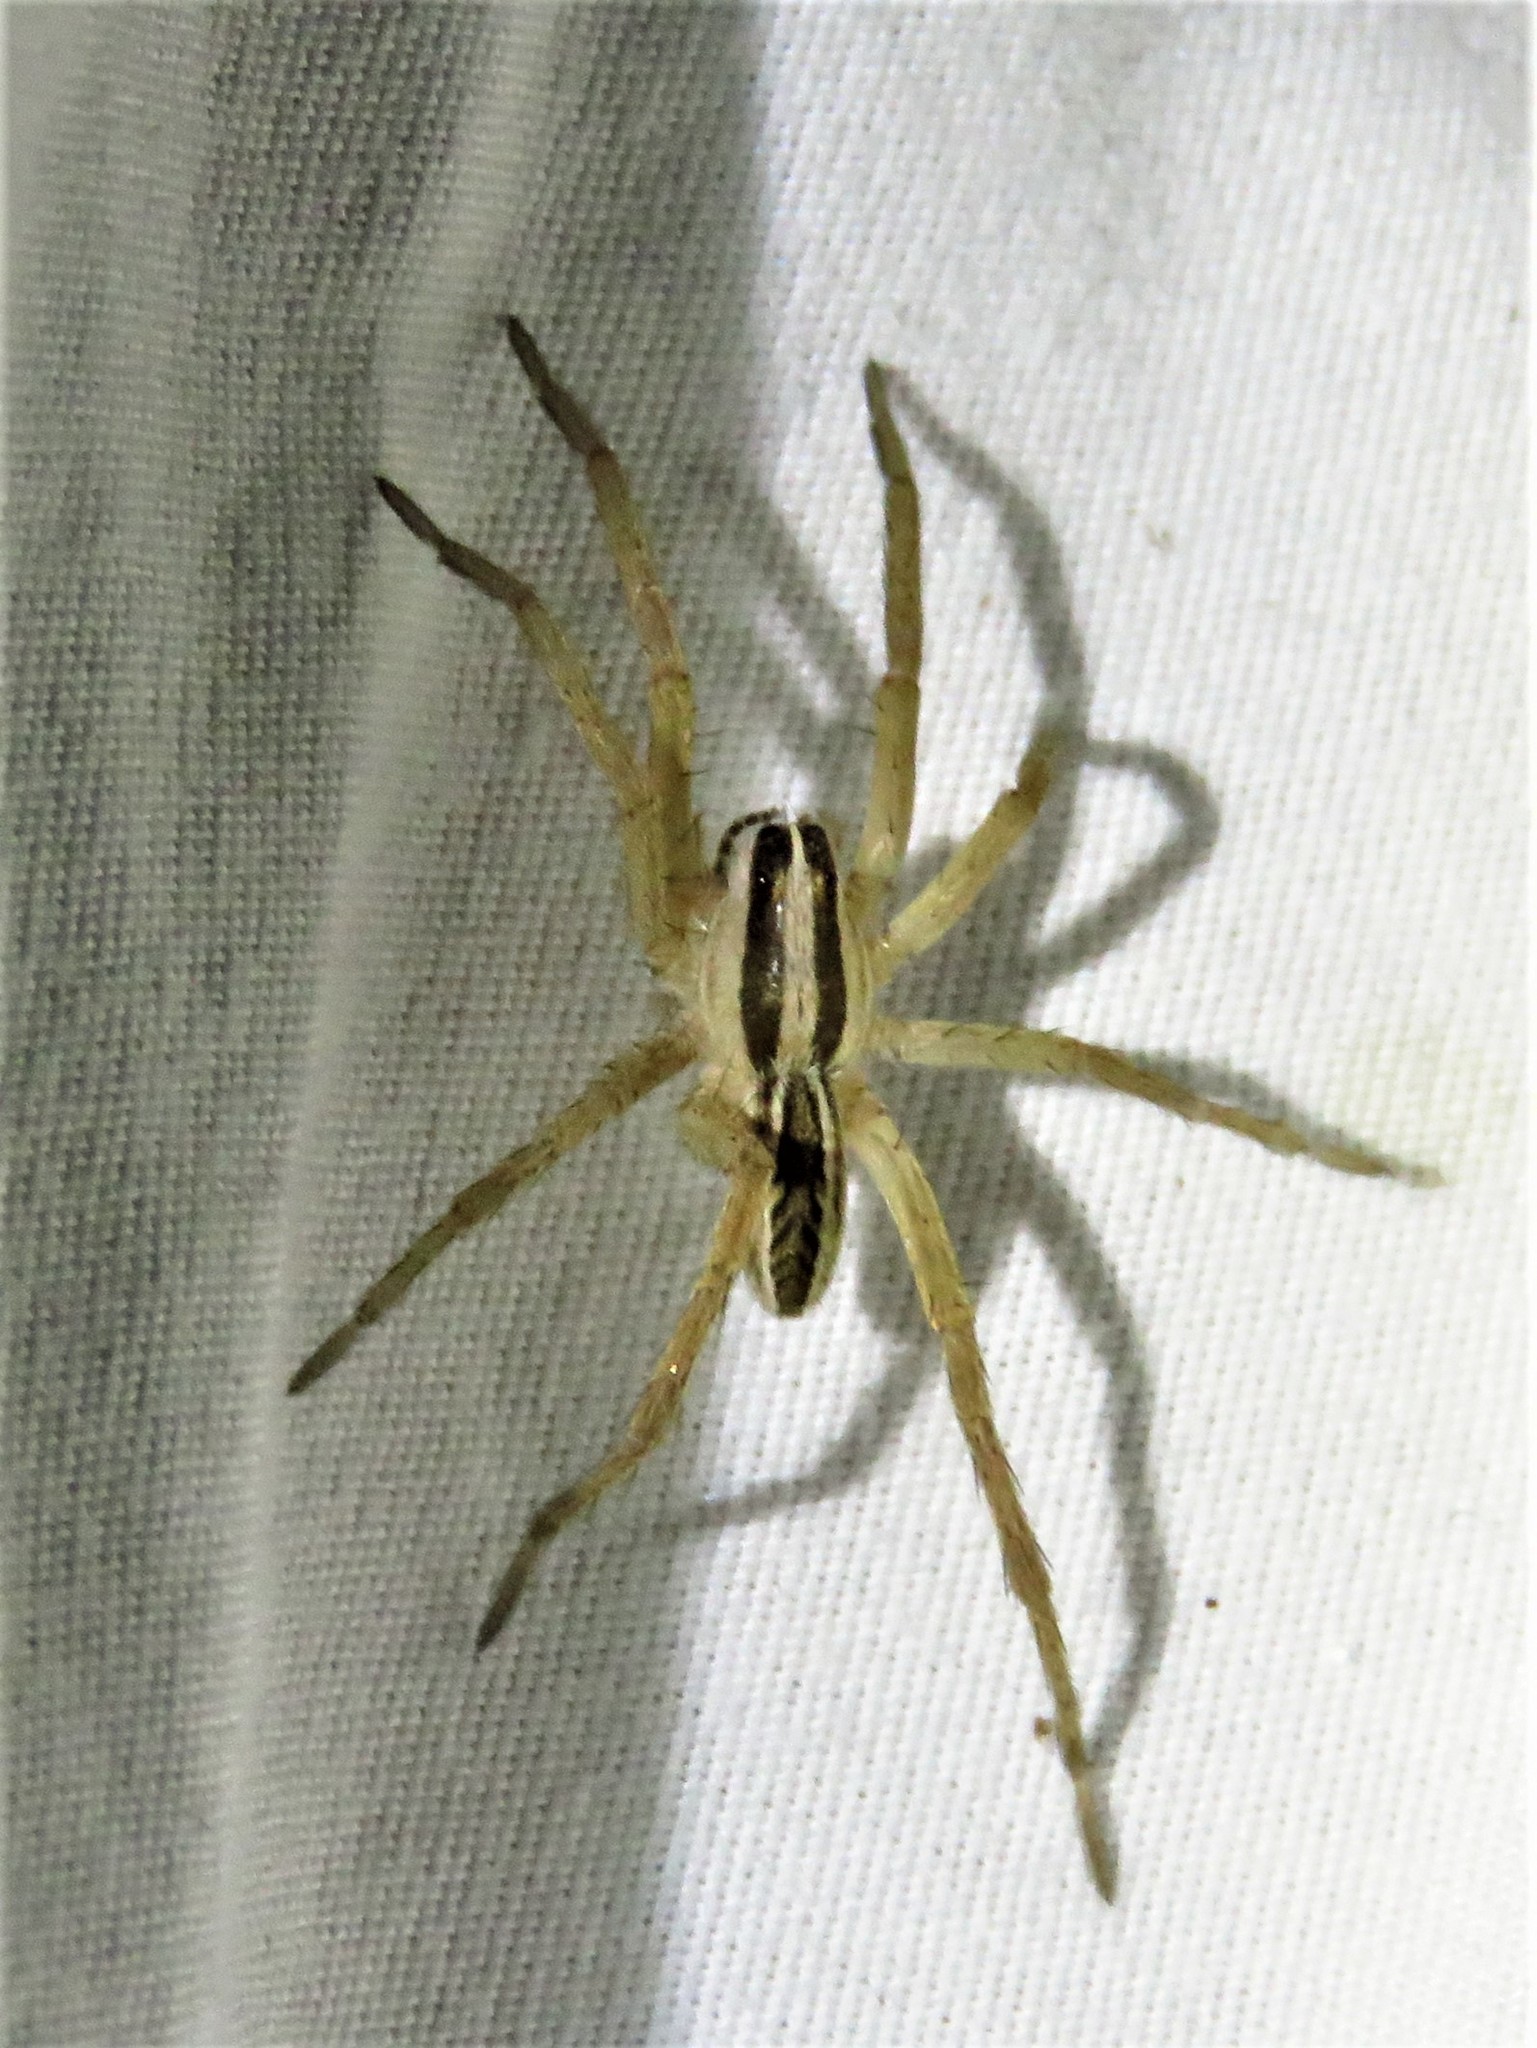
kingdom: Animalia
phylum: Arthropoda
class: Arachnida
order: Araneae
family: Lycosidae
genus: Rabidosa
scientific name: Rabidosa rabida
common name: Rabid wolf spider
